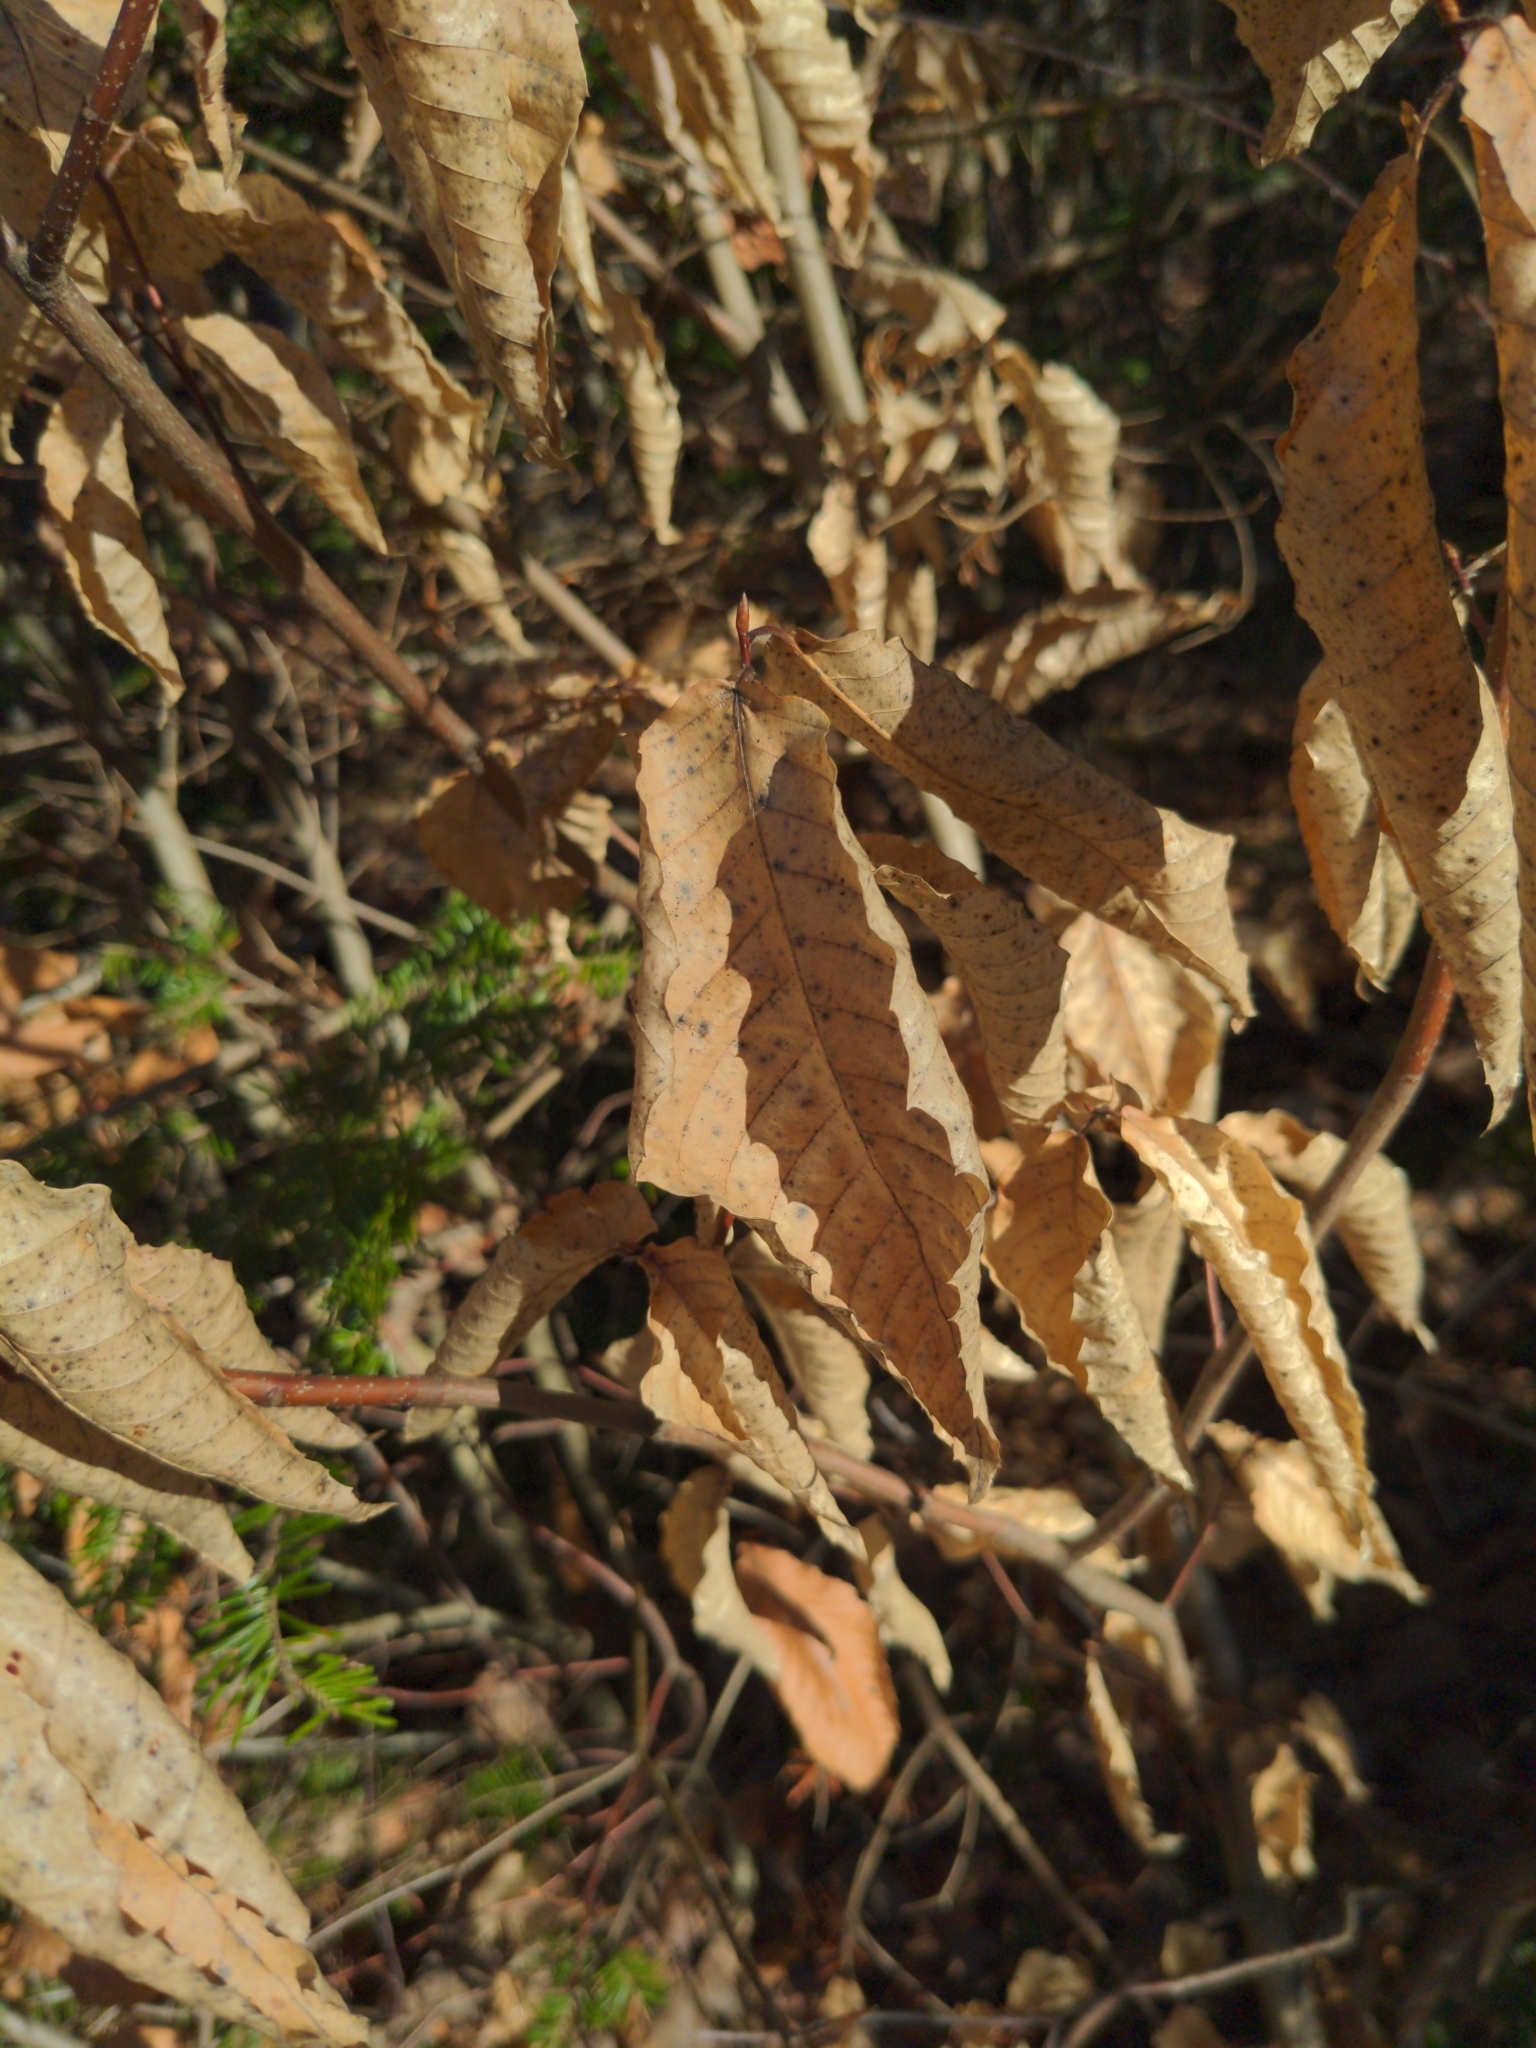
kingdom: Plantae
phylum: Tracheophyta
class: Magnoliopsida
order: Fagales
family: Fagaceae
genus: Fagus
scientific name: Fagus grandifolia
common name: American beech
